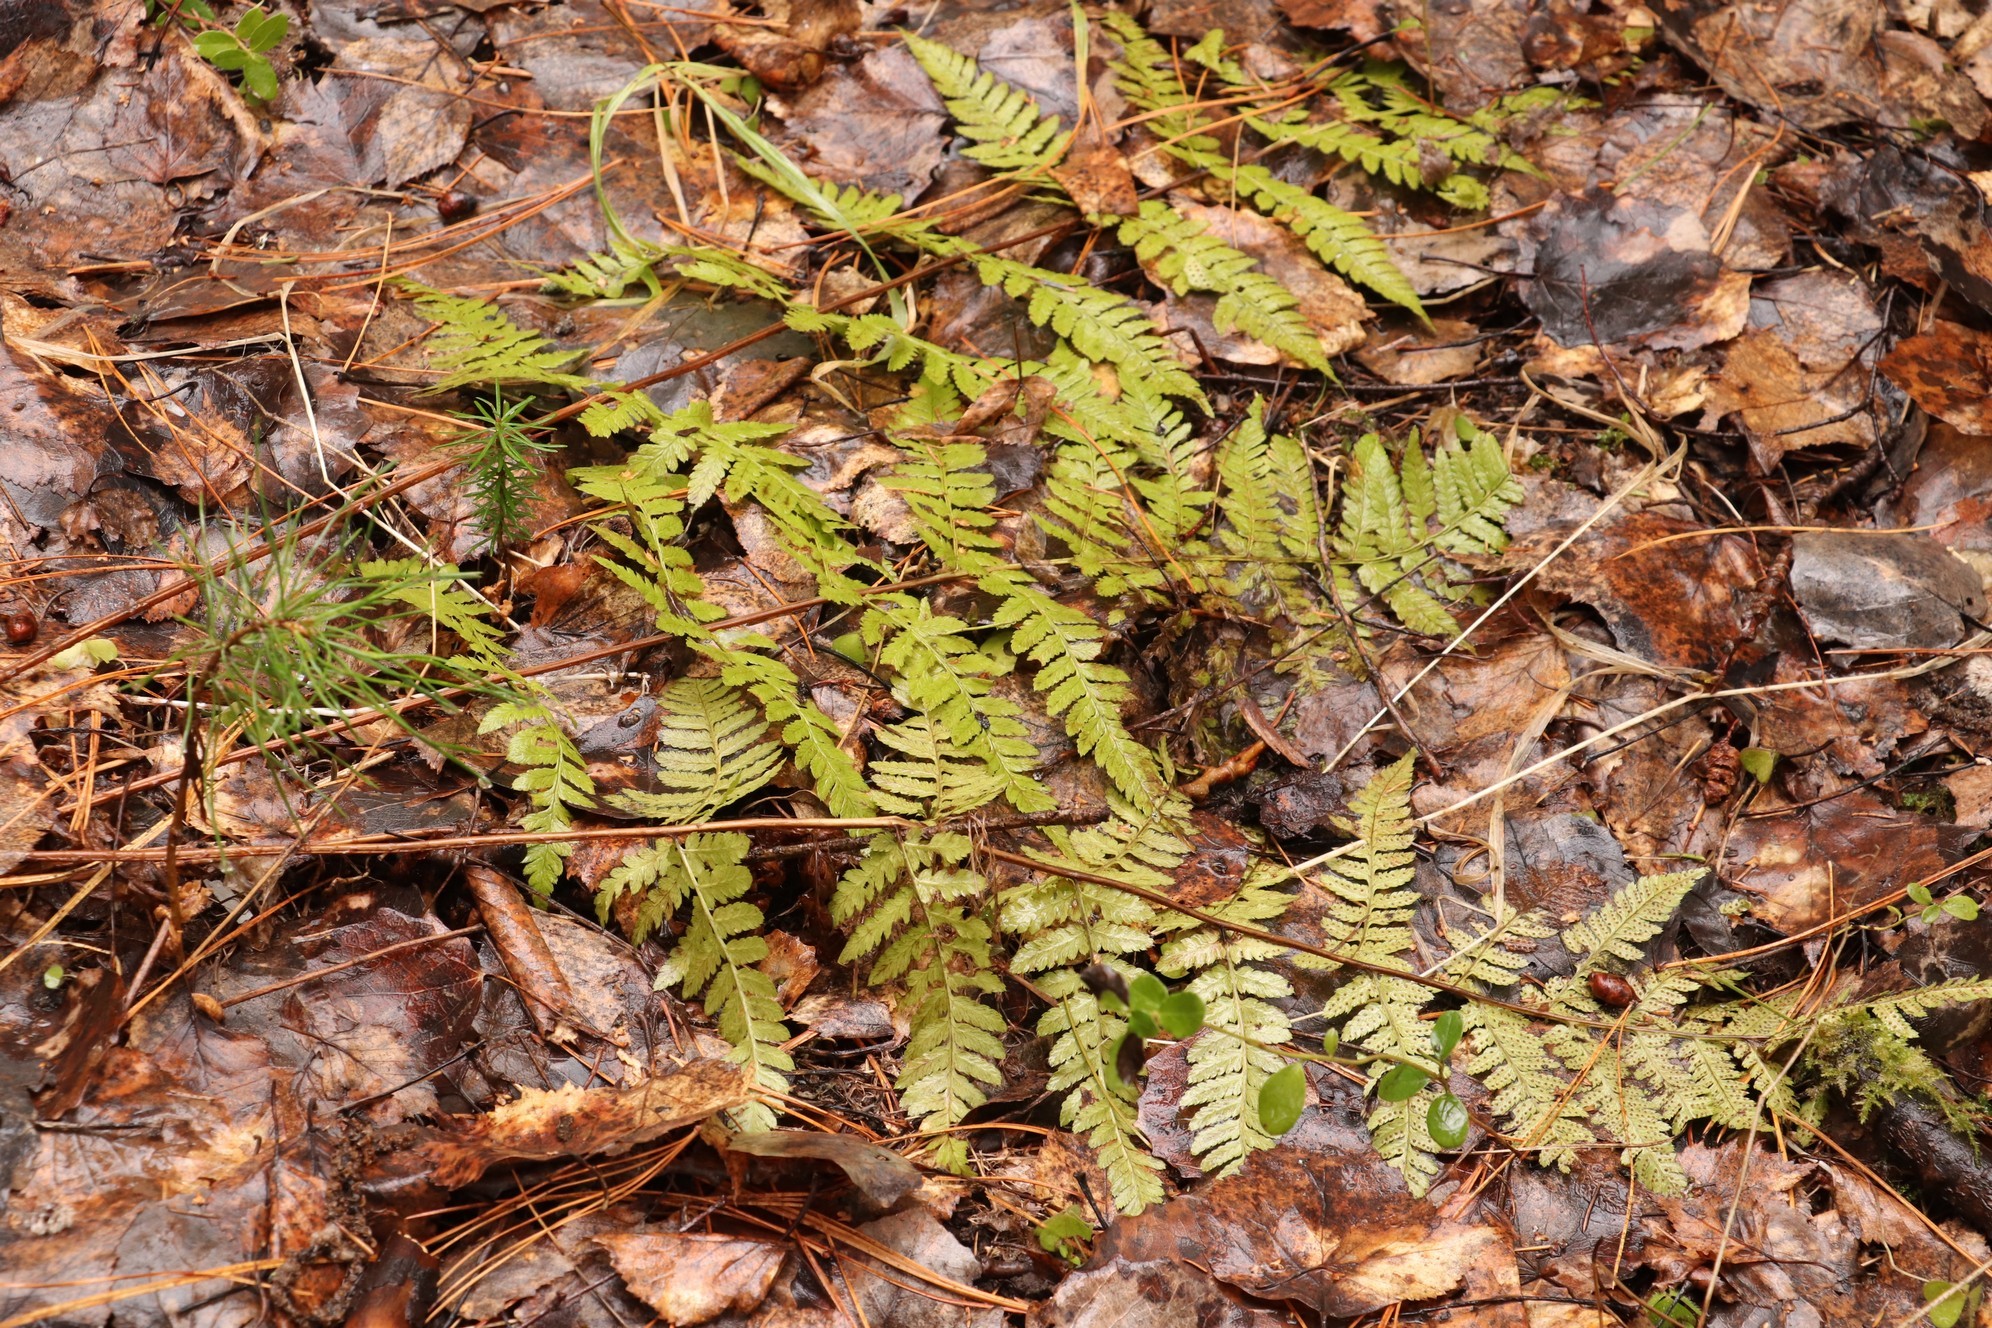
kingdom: Plantae
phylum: Tracheophyta
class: Polypodiopsida
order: Polypodiales
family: Dryopteridaceae
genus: Dryopteris
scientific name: Dryopteris carthusiana
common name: Narrow buckler-fern
